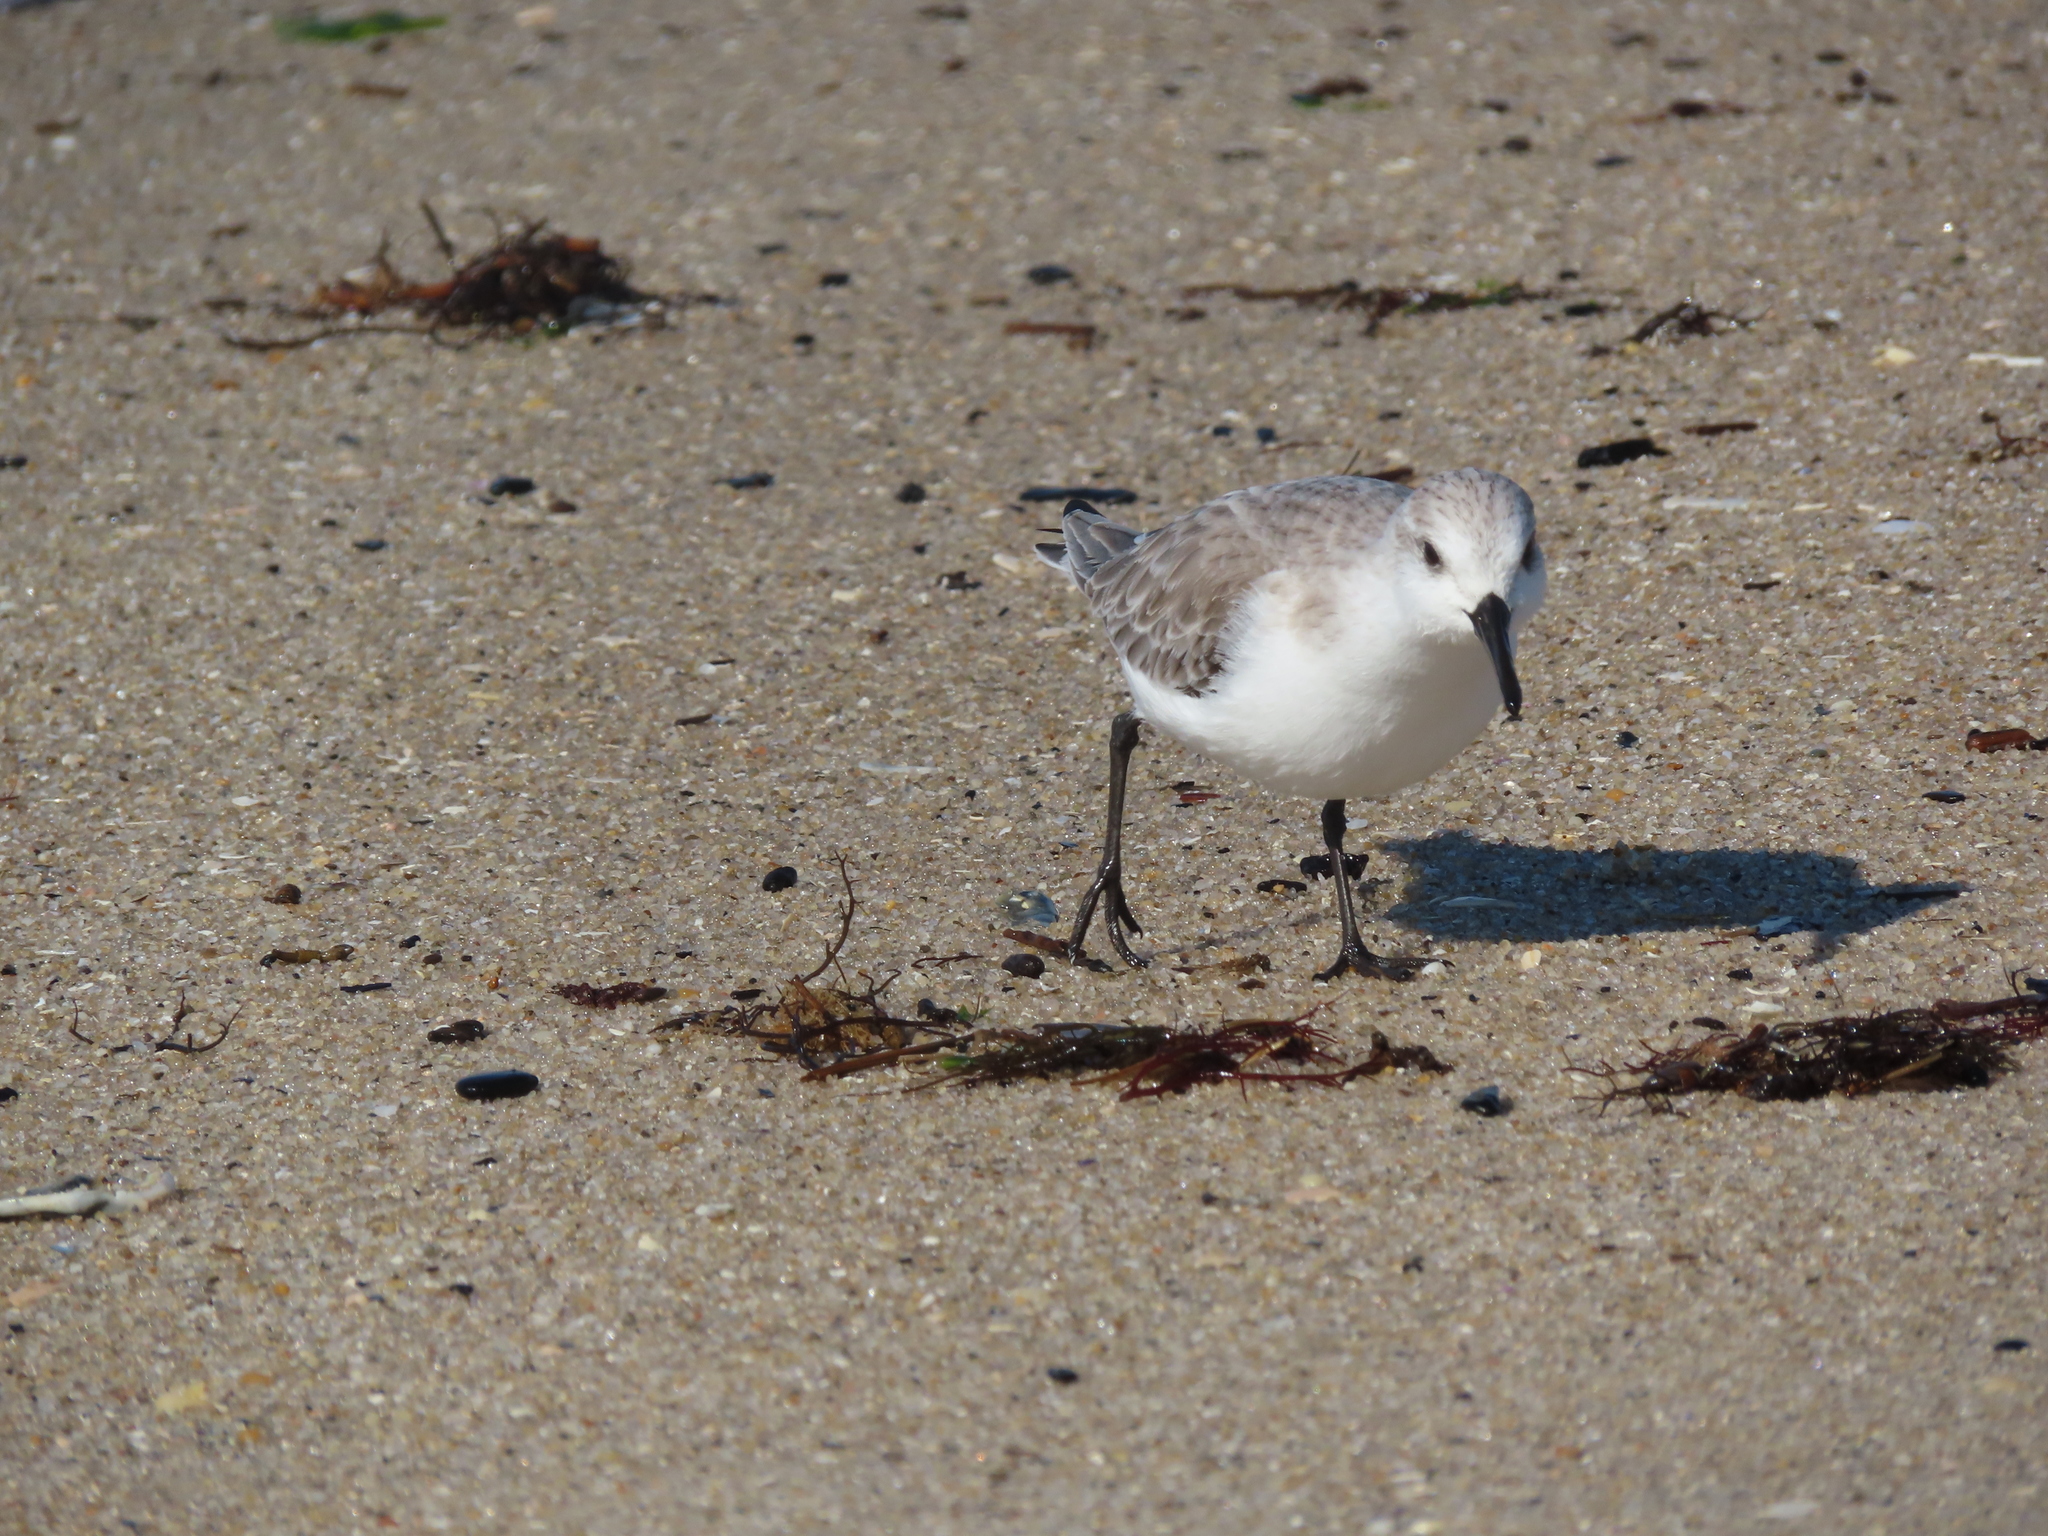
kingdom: Animalia
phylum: Chordata
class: Aves
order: Charadriiformes
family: Scolopacidae
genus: Calidris
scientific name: Calidris alba
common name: Sanderling
